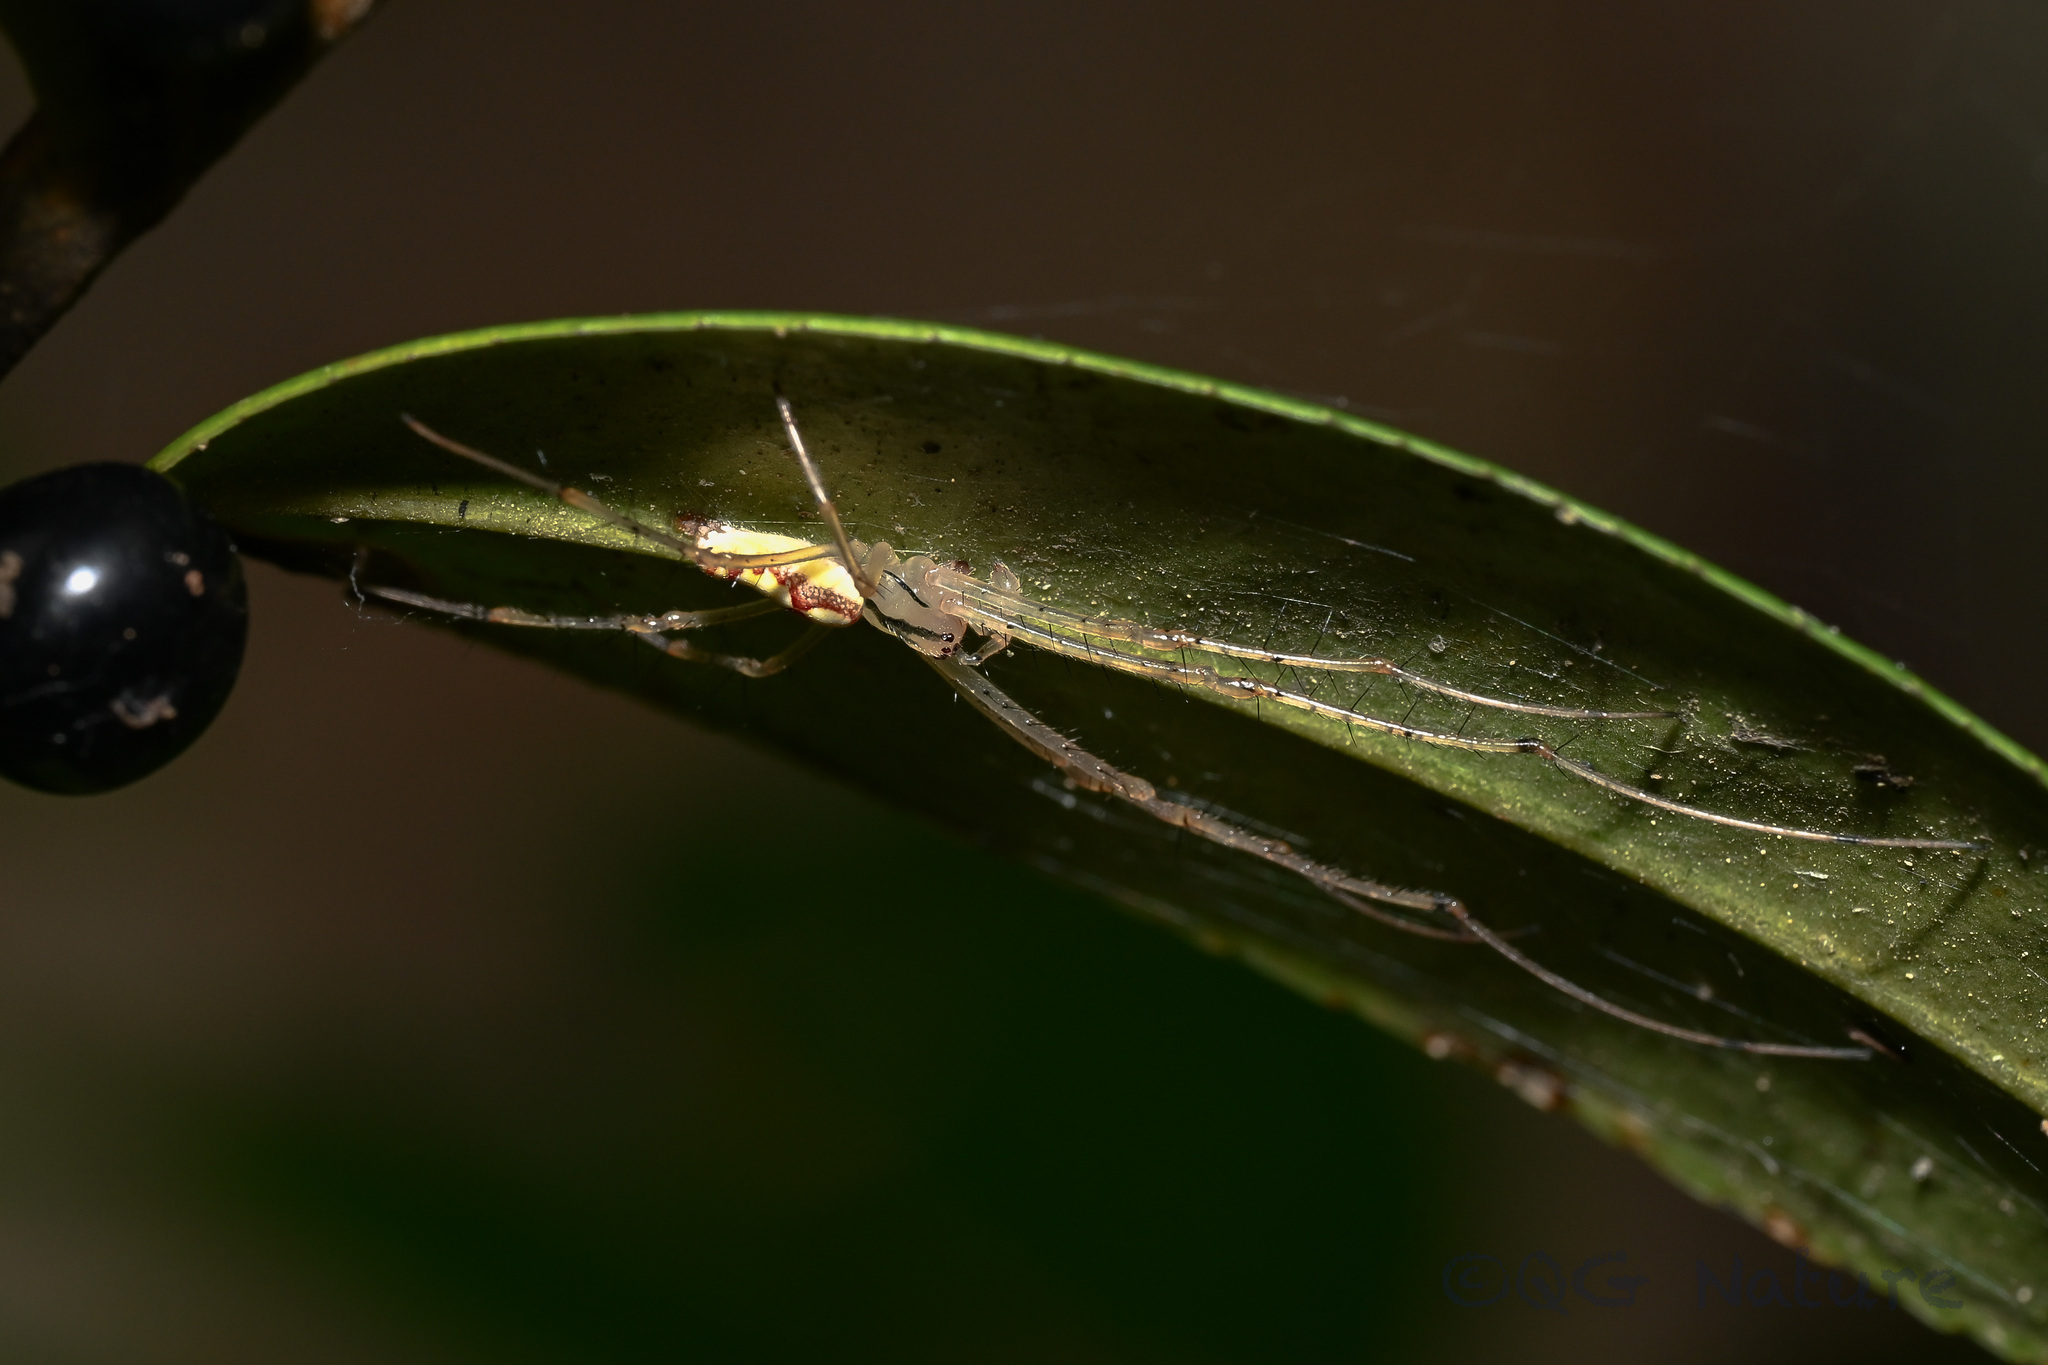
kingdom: Animalia
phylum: Arthropoda
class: Arachnida
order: Araneae
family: Tetragnathidae
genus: Metellina
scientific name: Metellina ornata
